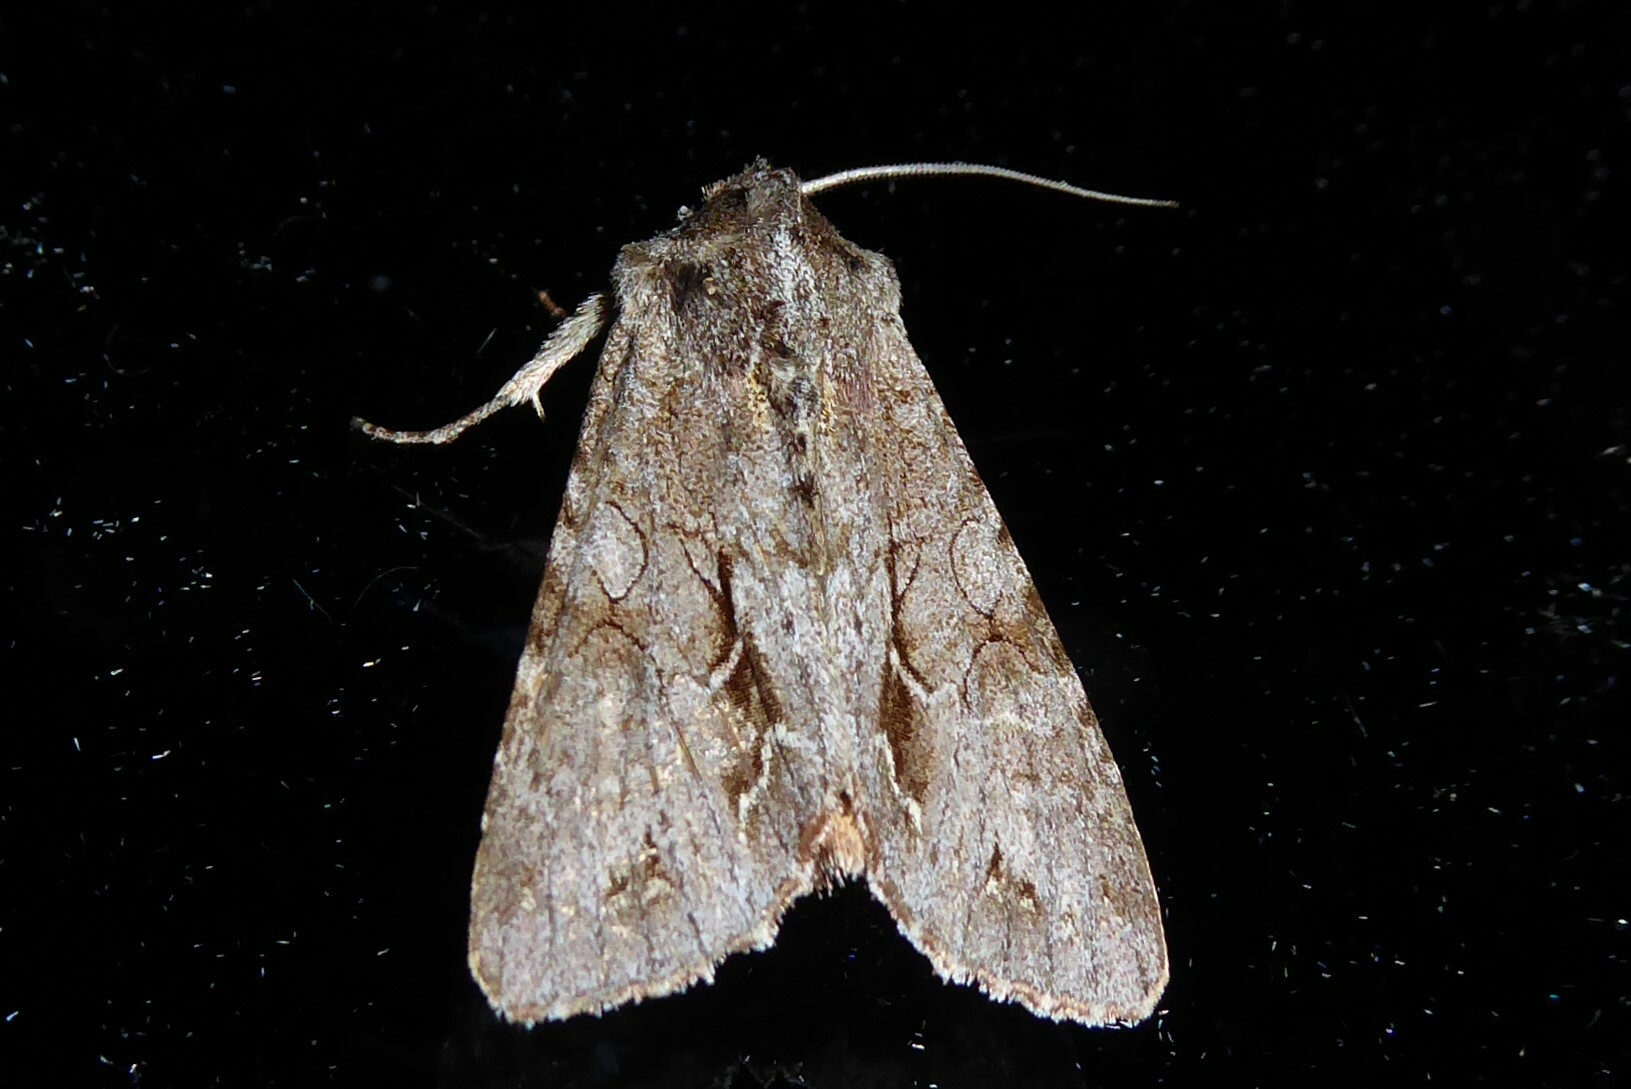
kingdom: Animalia
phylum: Arthropoda
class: Insecta
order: Lepidoptera
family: Noctuidae
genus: Ichneutica
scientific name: Ichneutica
